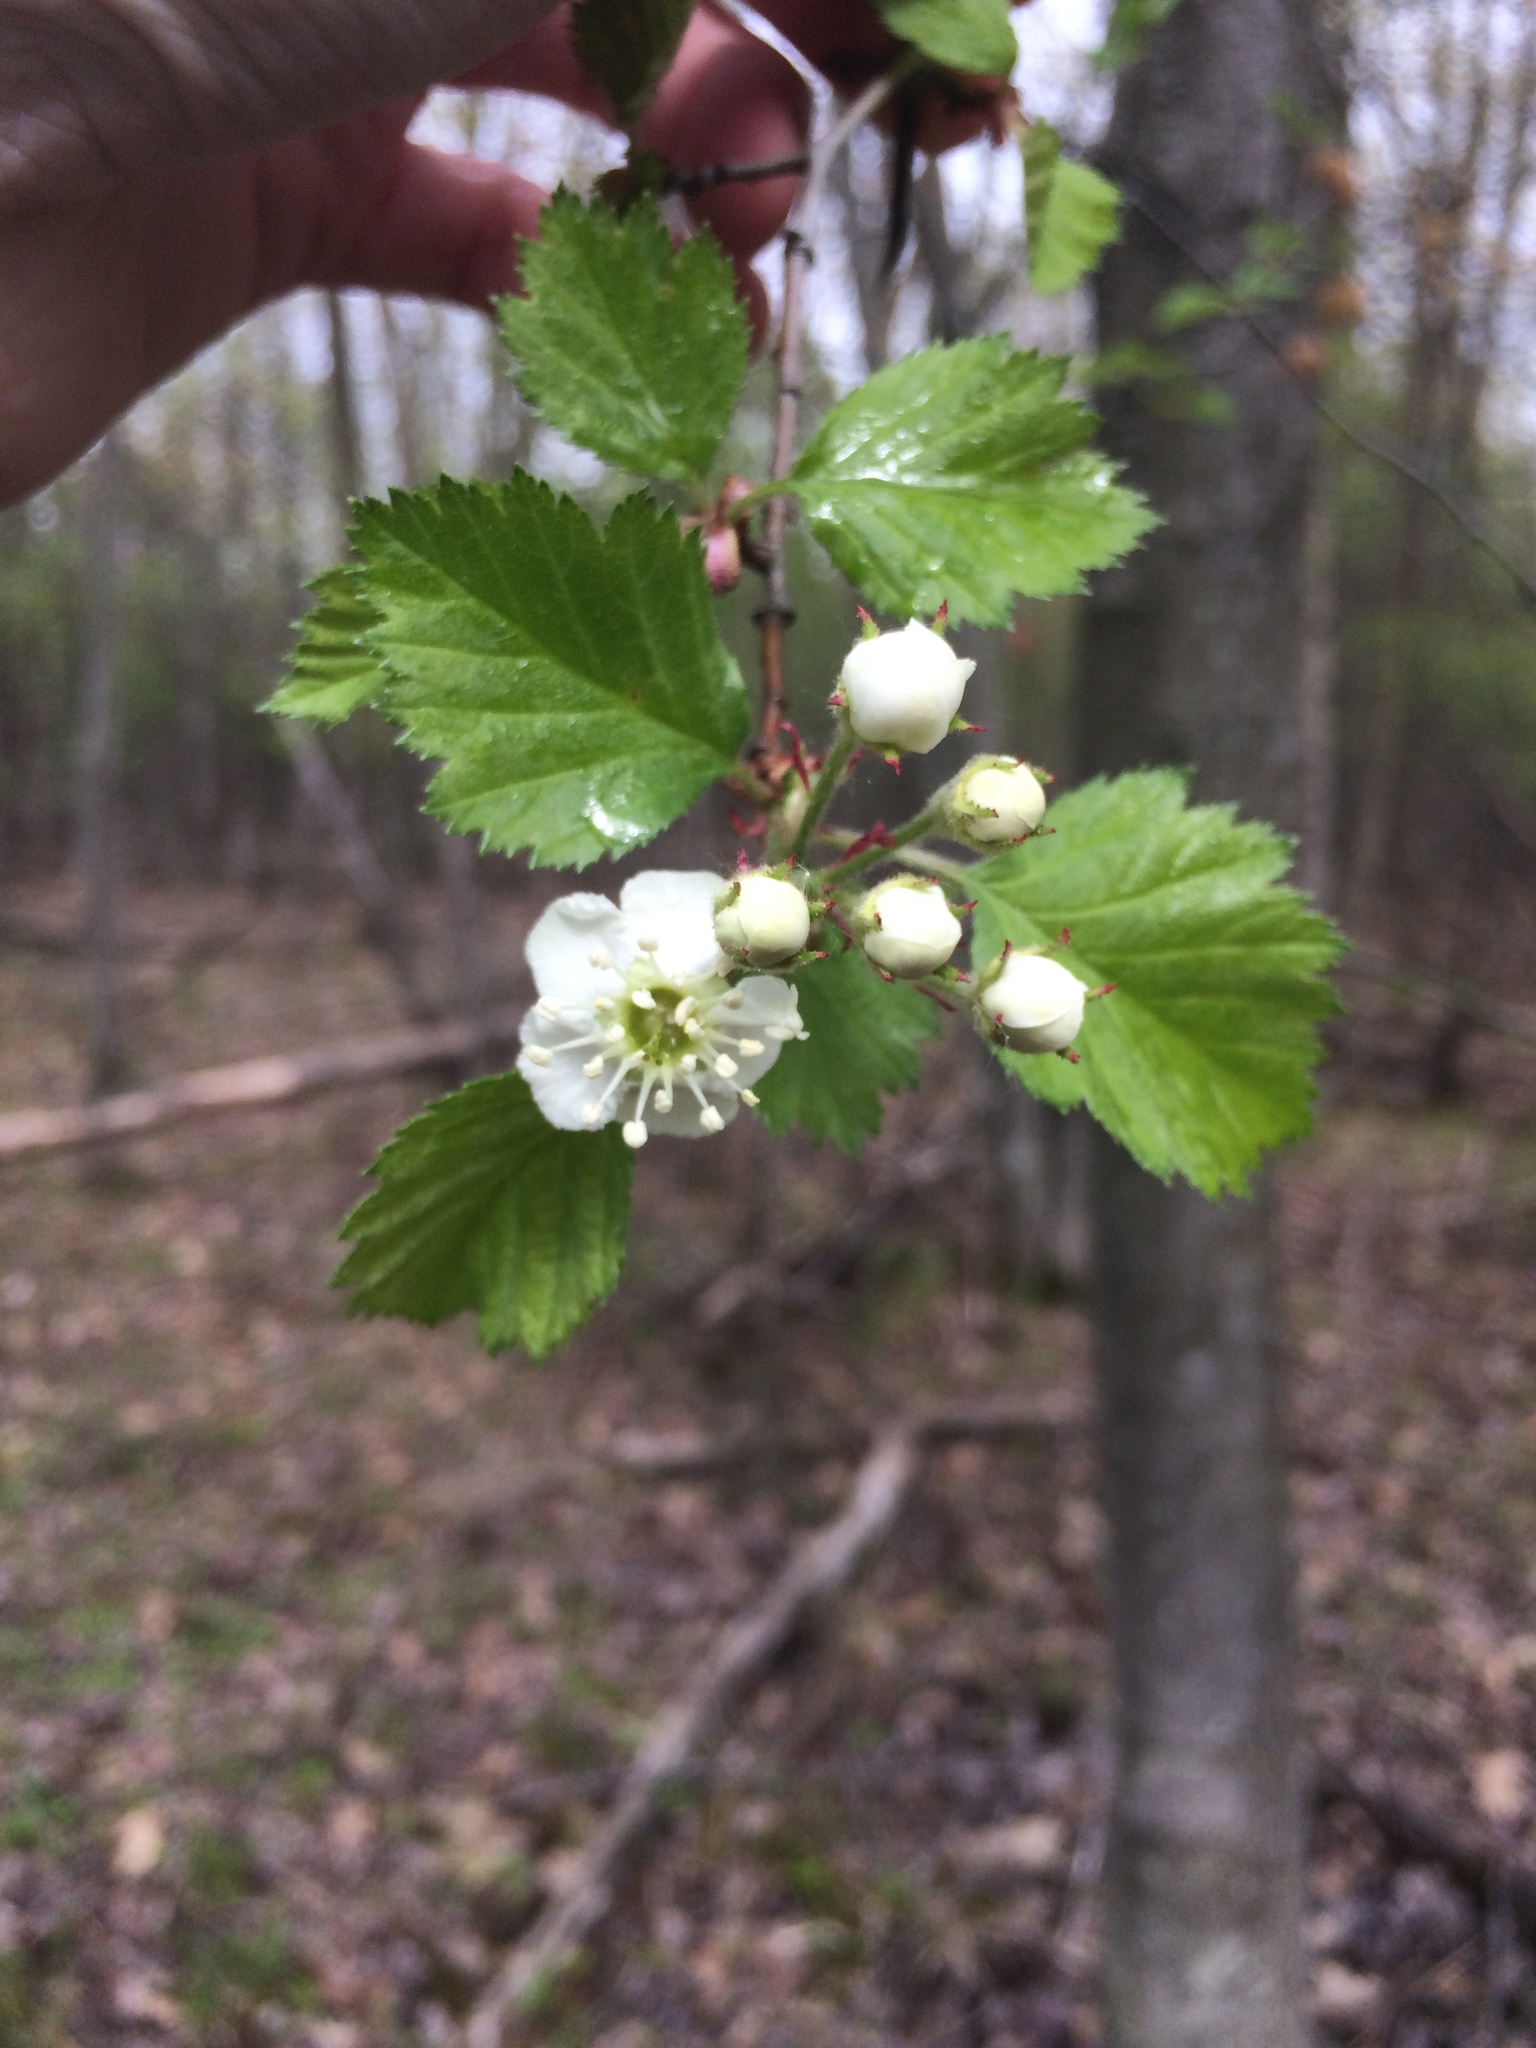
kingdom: Plantae
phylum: Tracheophyta
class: Magnoliopsida
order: Rosales
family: Rosaceae
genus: Crataegus
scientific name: Crataegus submollis
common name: Hairy cockspurthorn
